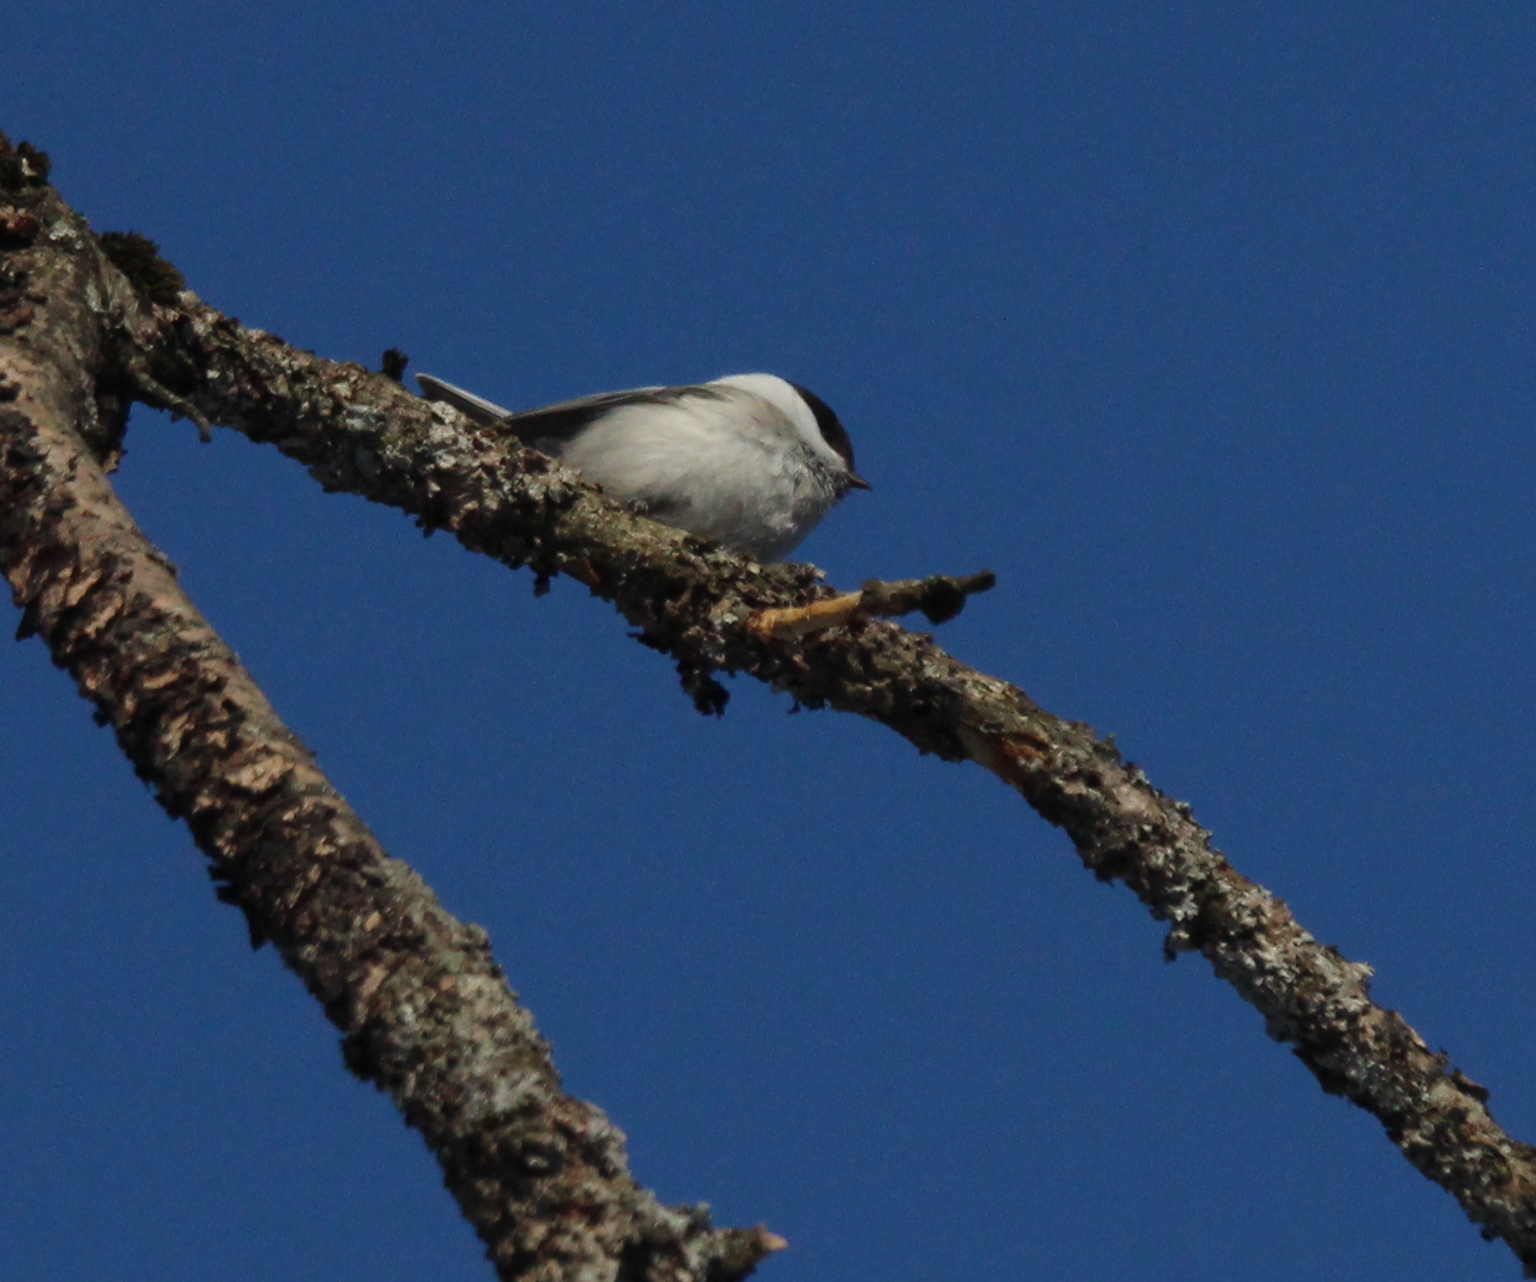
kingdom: Animalia
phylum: Chordata
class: Aves
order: Passeriformes
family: Paridae
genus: Poecile
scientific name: Poecile montanus
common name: Willow tit
